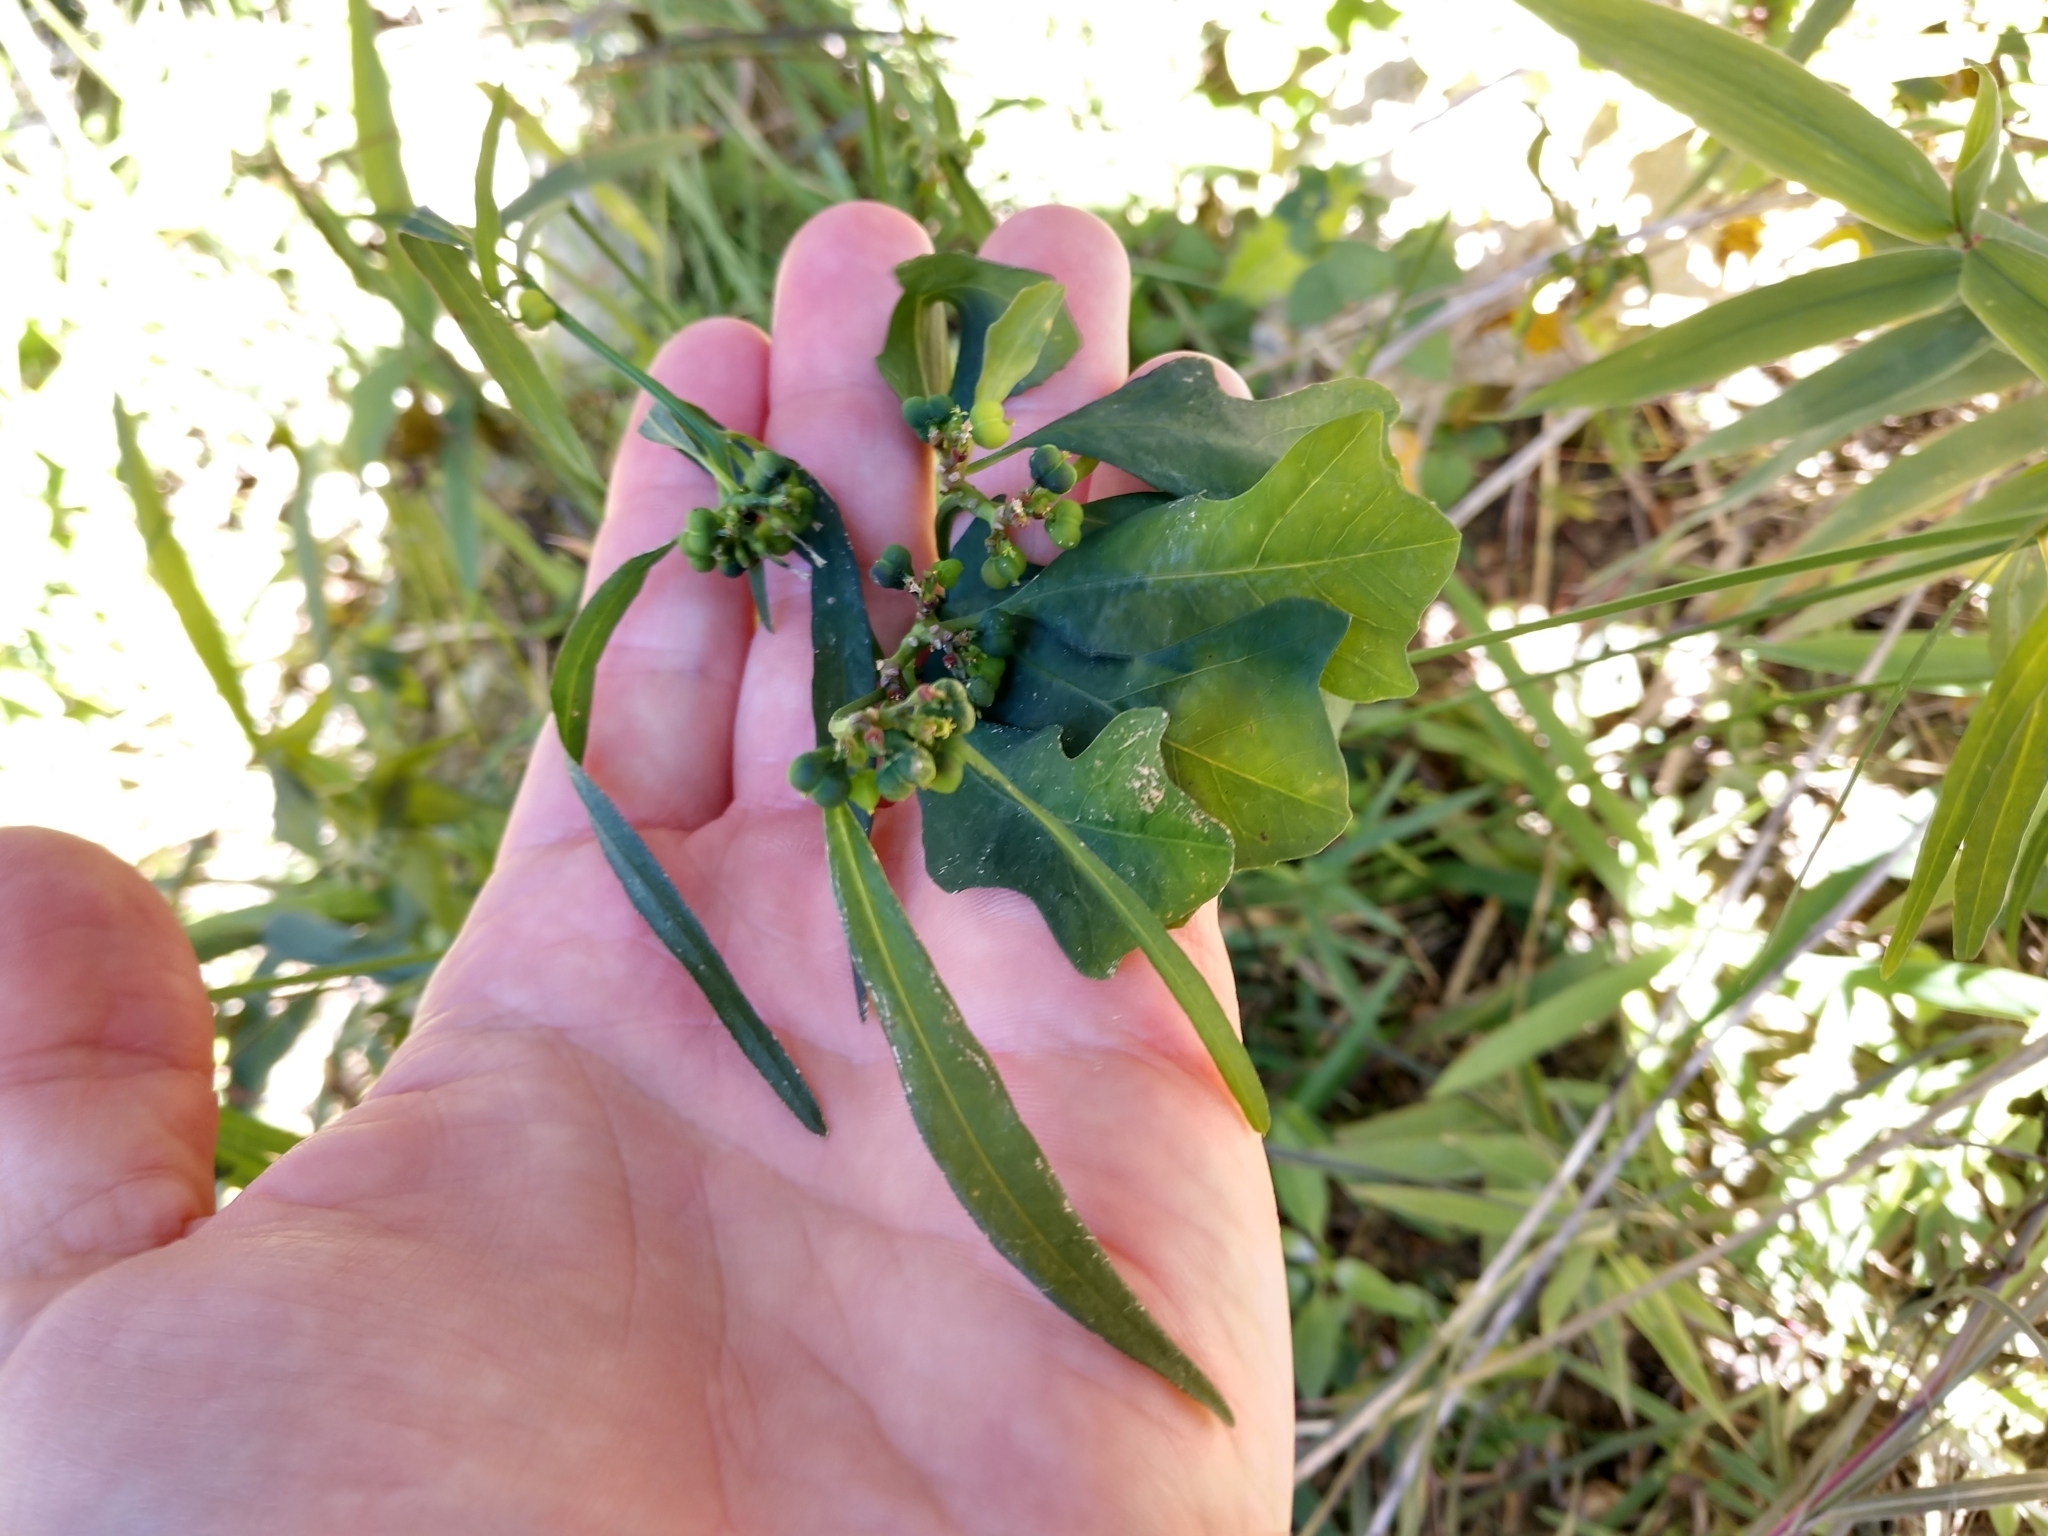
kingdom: Plantae
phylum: Tracheophyta
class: Magnoliopsida
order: Malpighiales
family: Euphorbiaceae
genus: Euphorbia
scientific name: Euphorbia heterophylla
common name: Mexican fireplant
